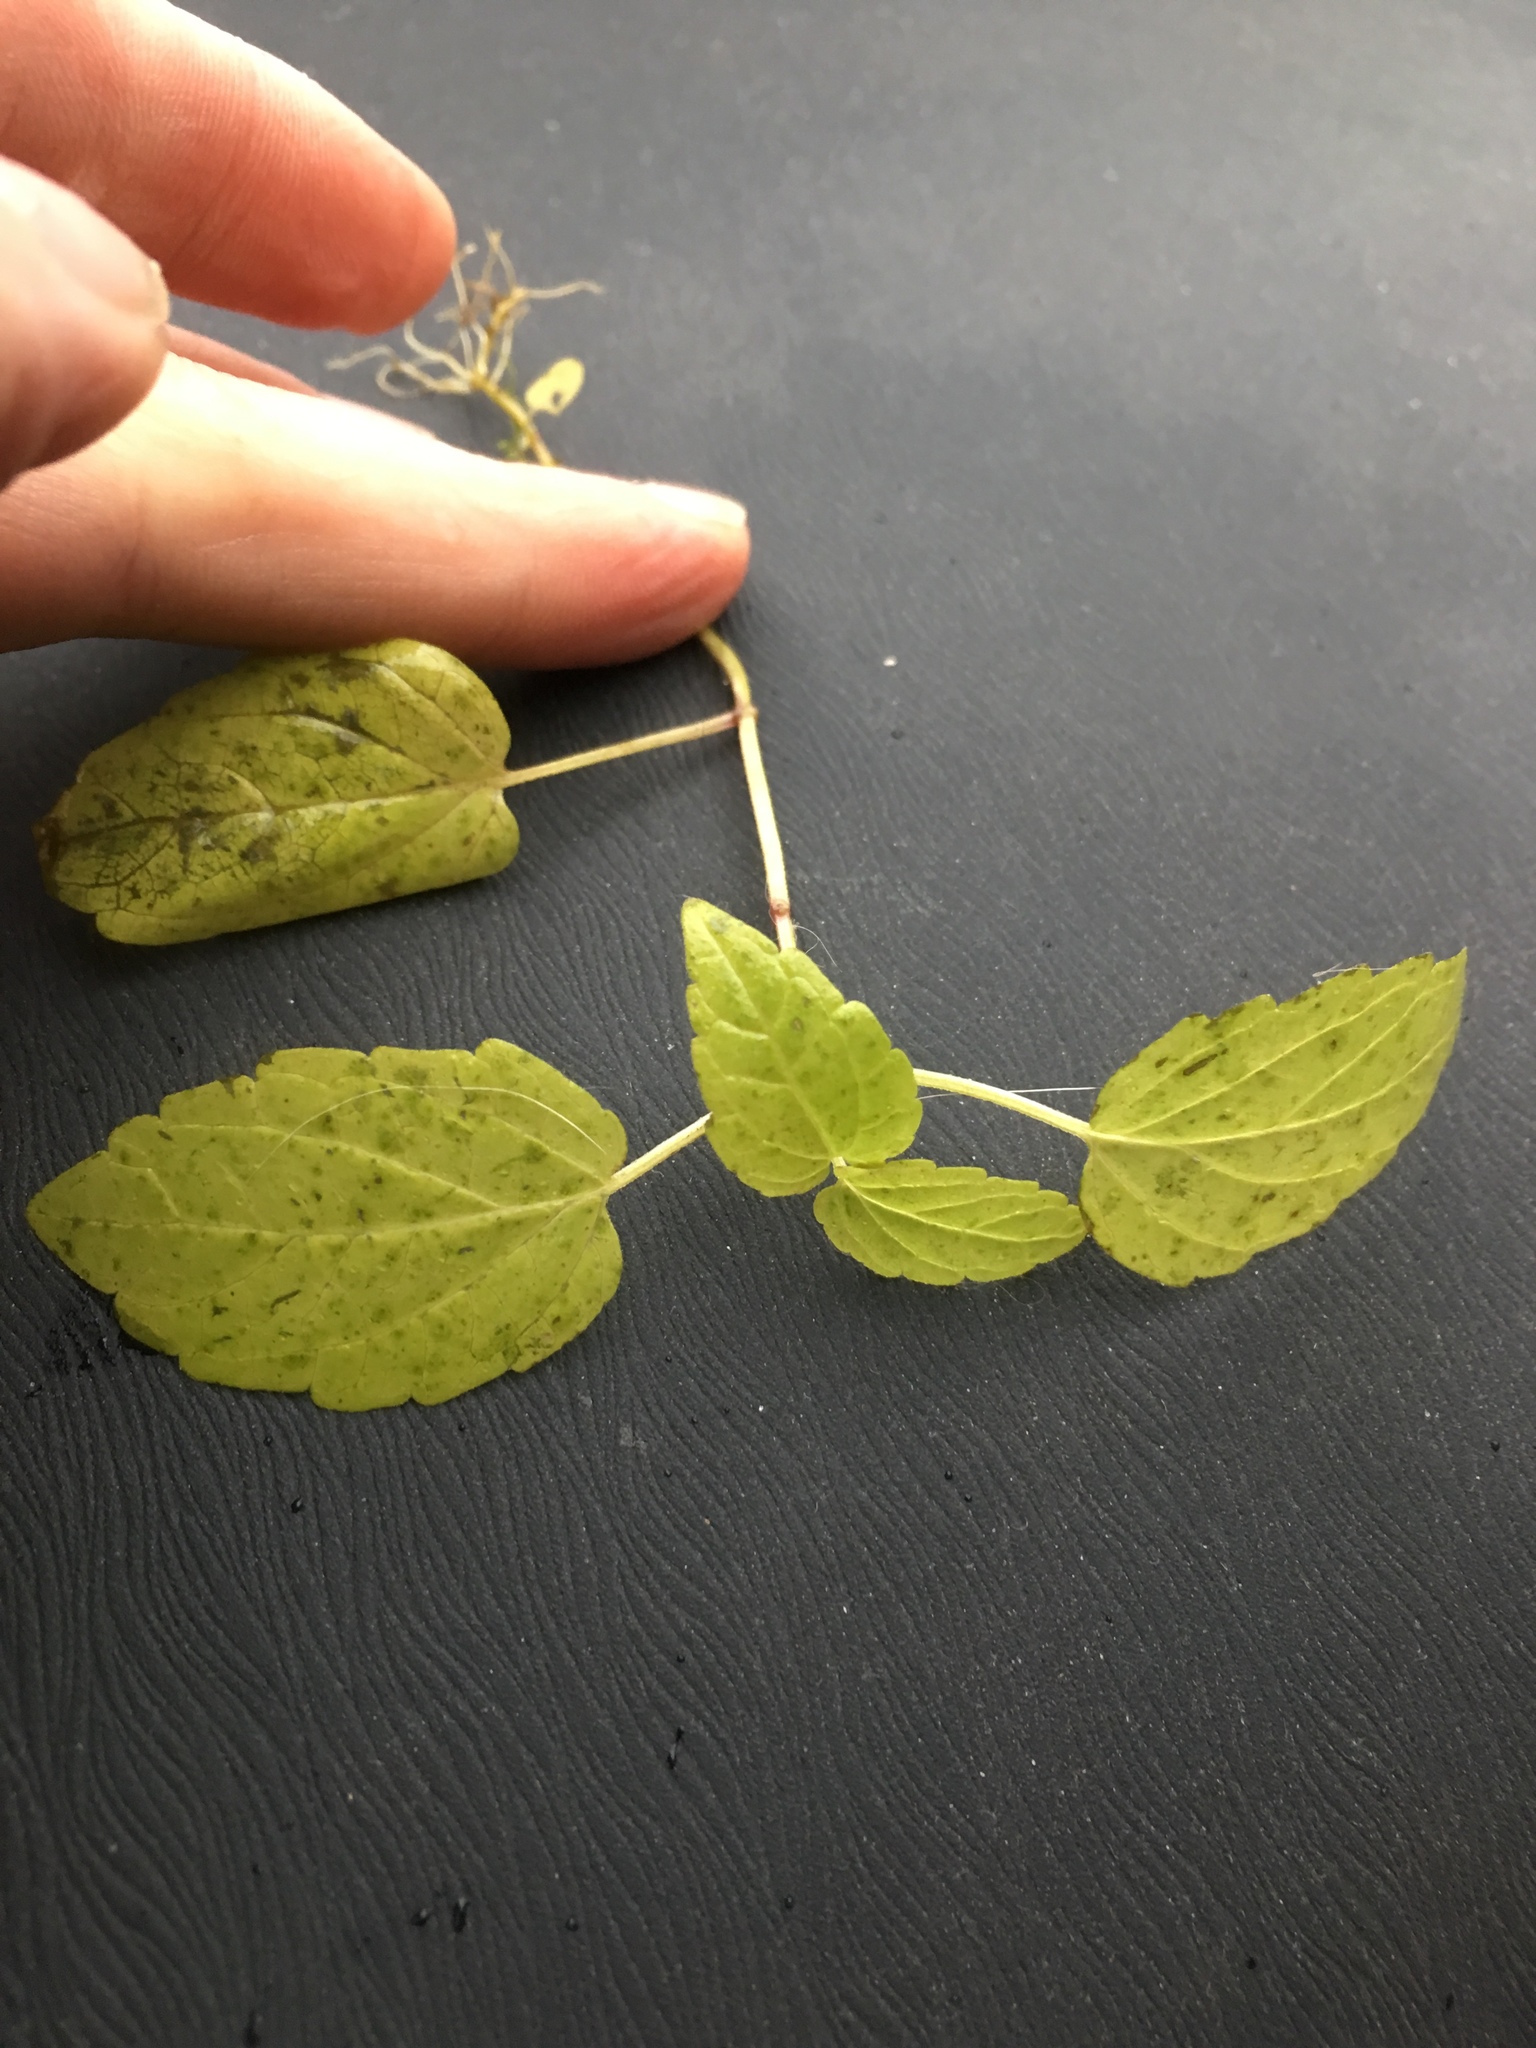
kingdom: Plantae
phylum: Tracheophyta
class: Magnoliopsida
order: Rosales
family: Urticaceae
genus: Pilea
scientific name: Pilea pumila
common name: Clearweed
